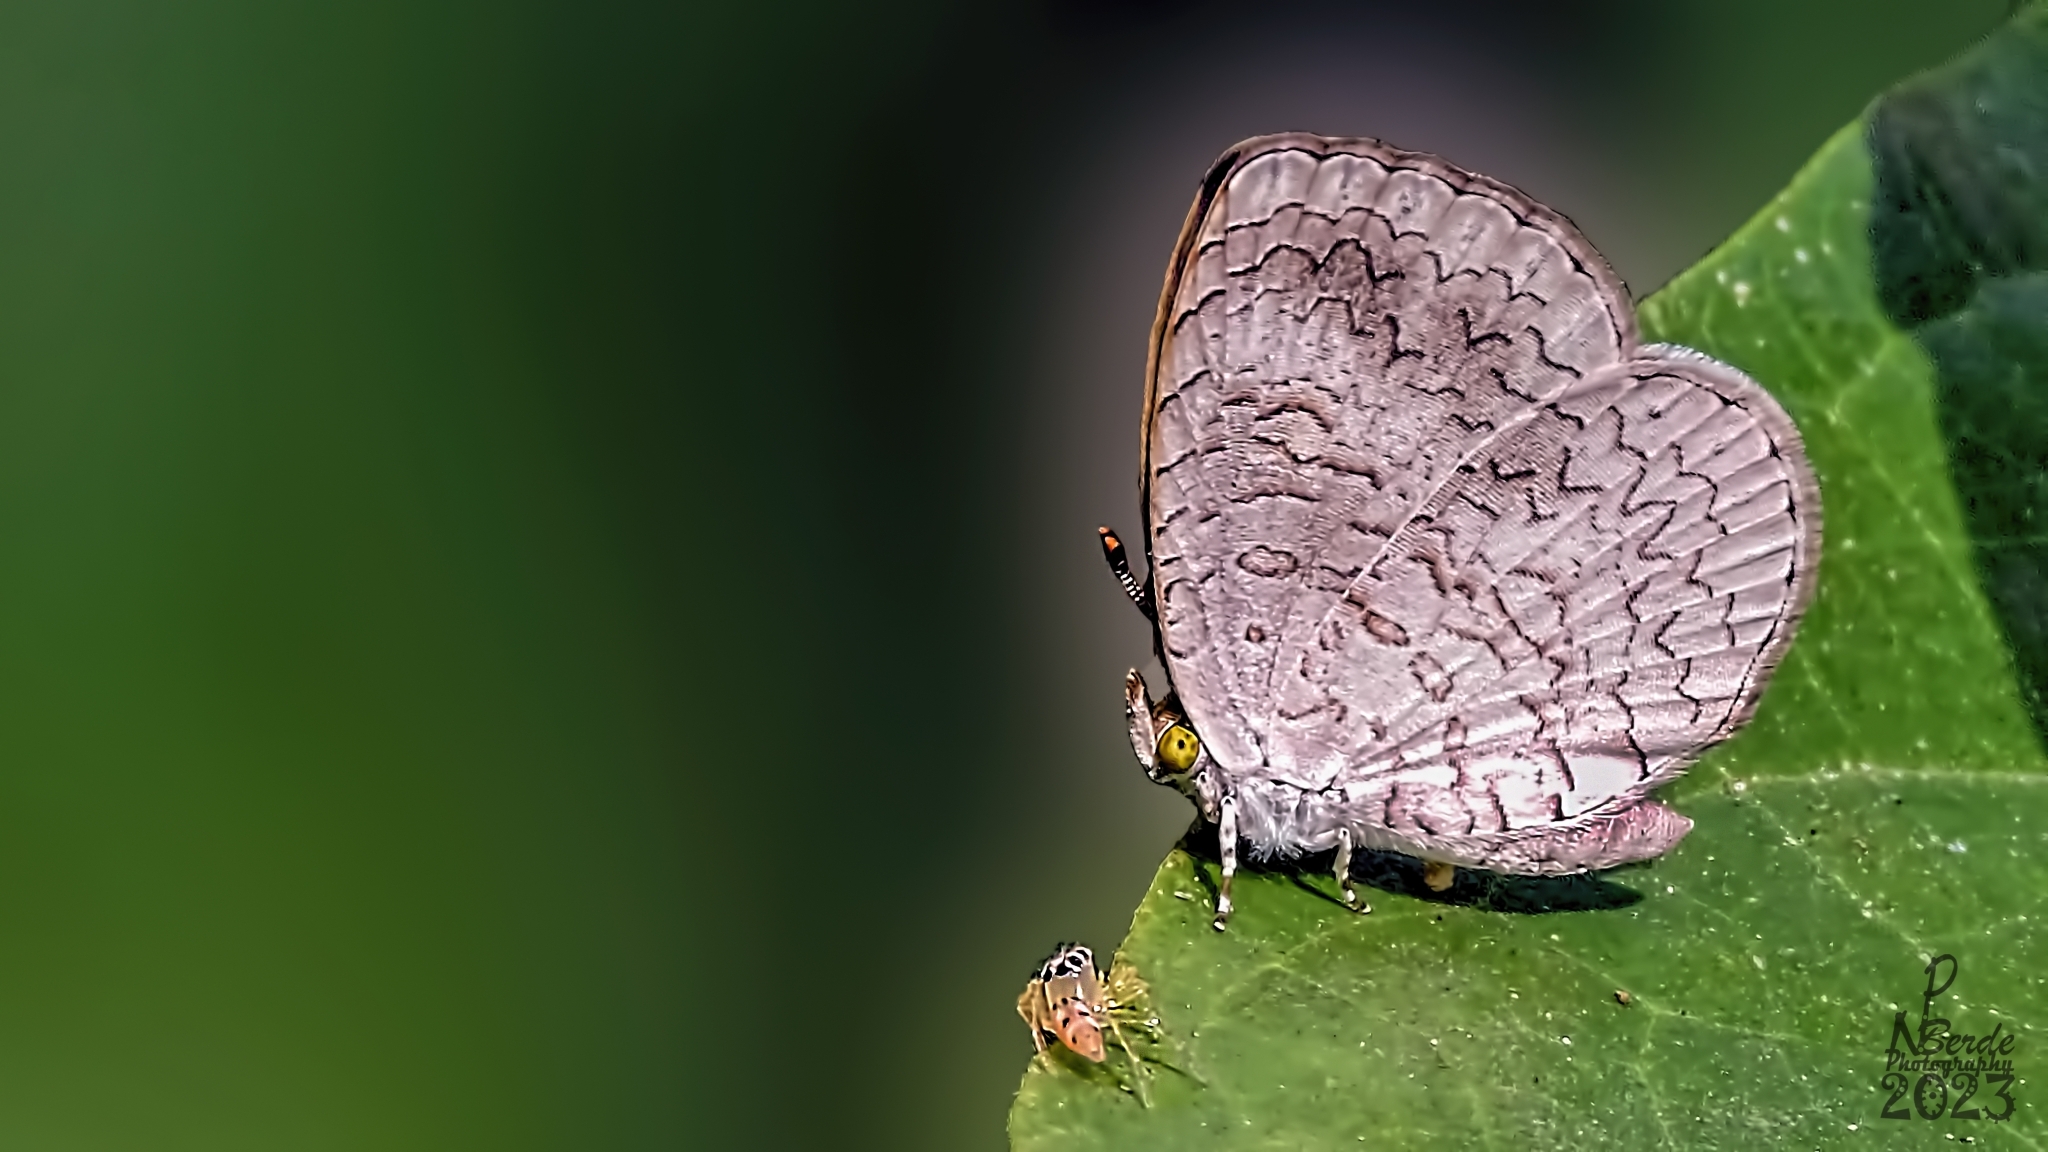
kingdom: Animalia
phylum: Arthropoda
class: Insecta
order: Lepidoptera
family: Lycaenidae
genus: Spalgis
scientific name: Spalgis epius
